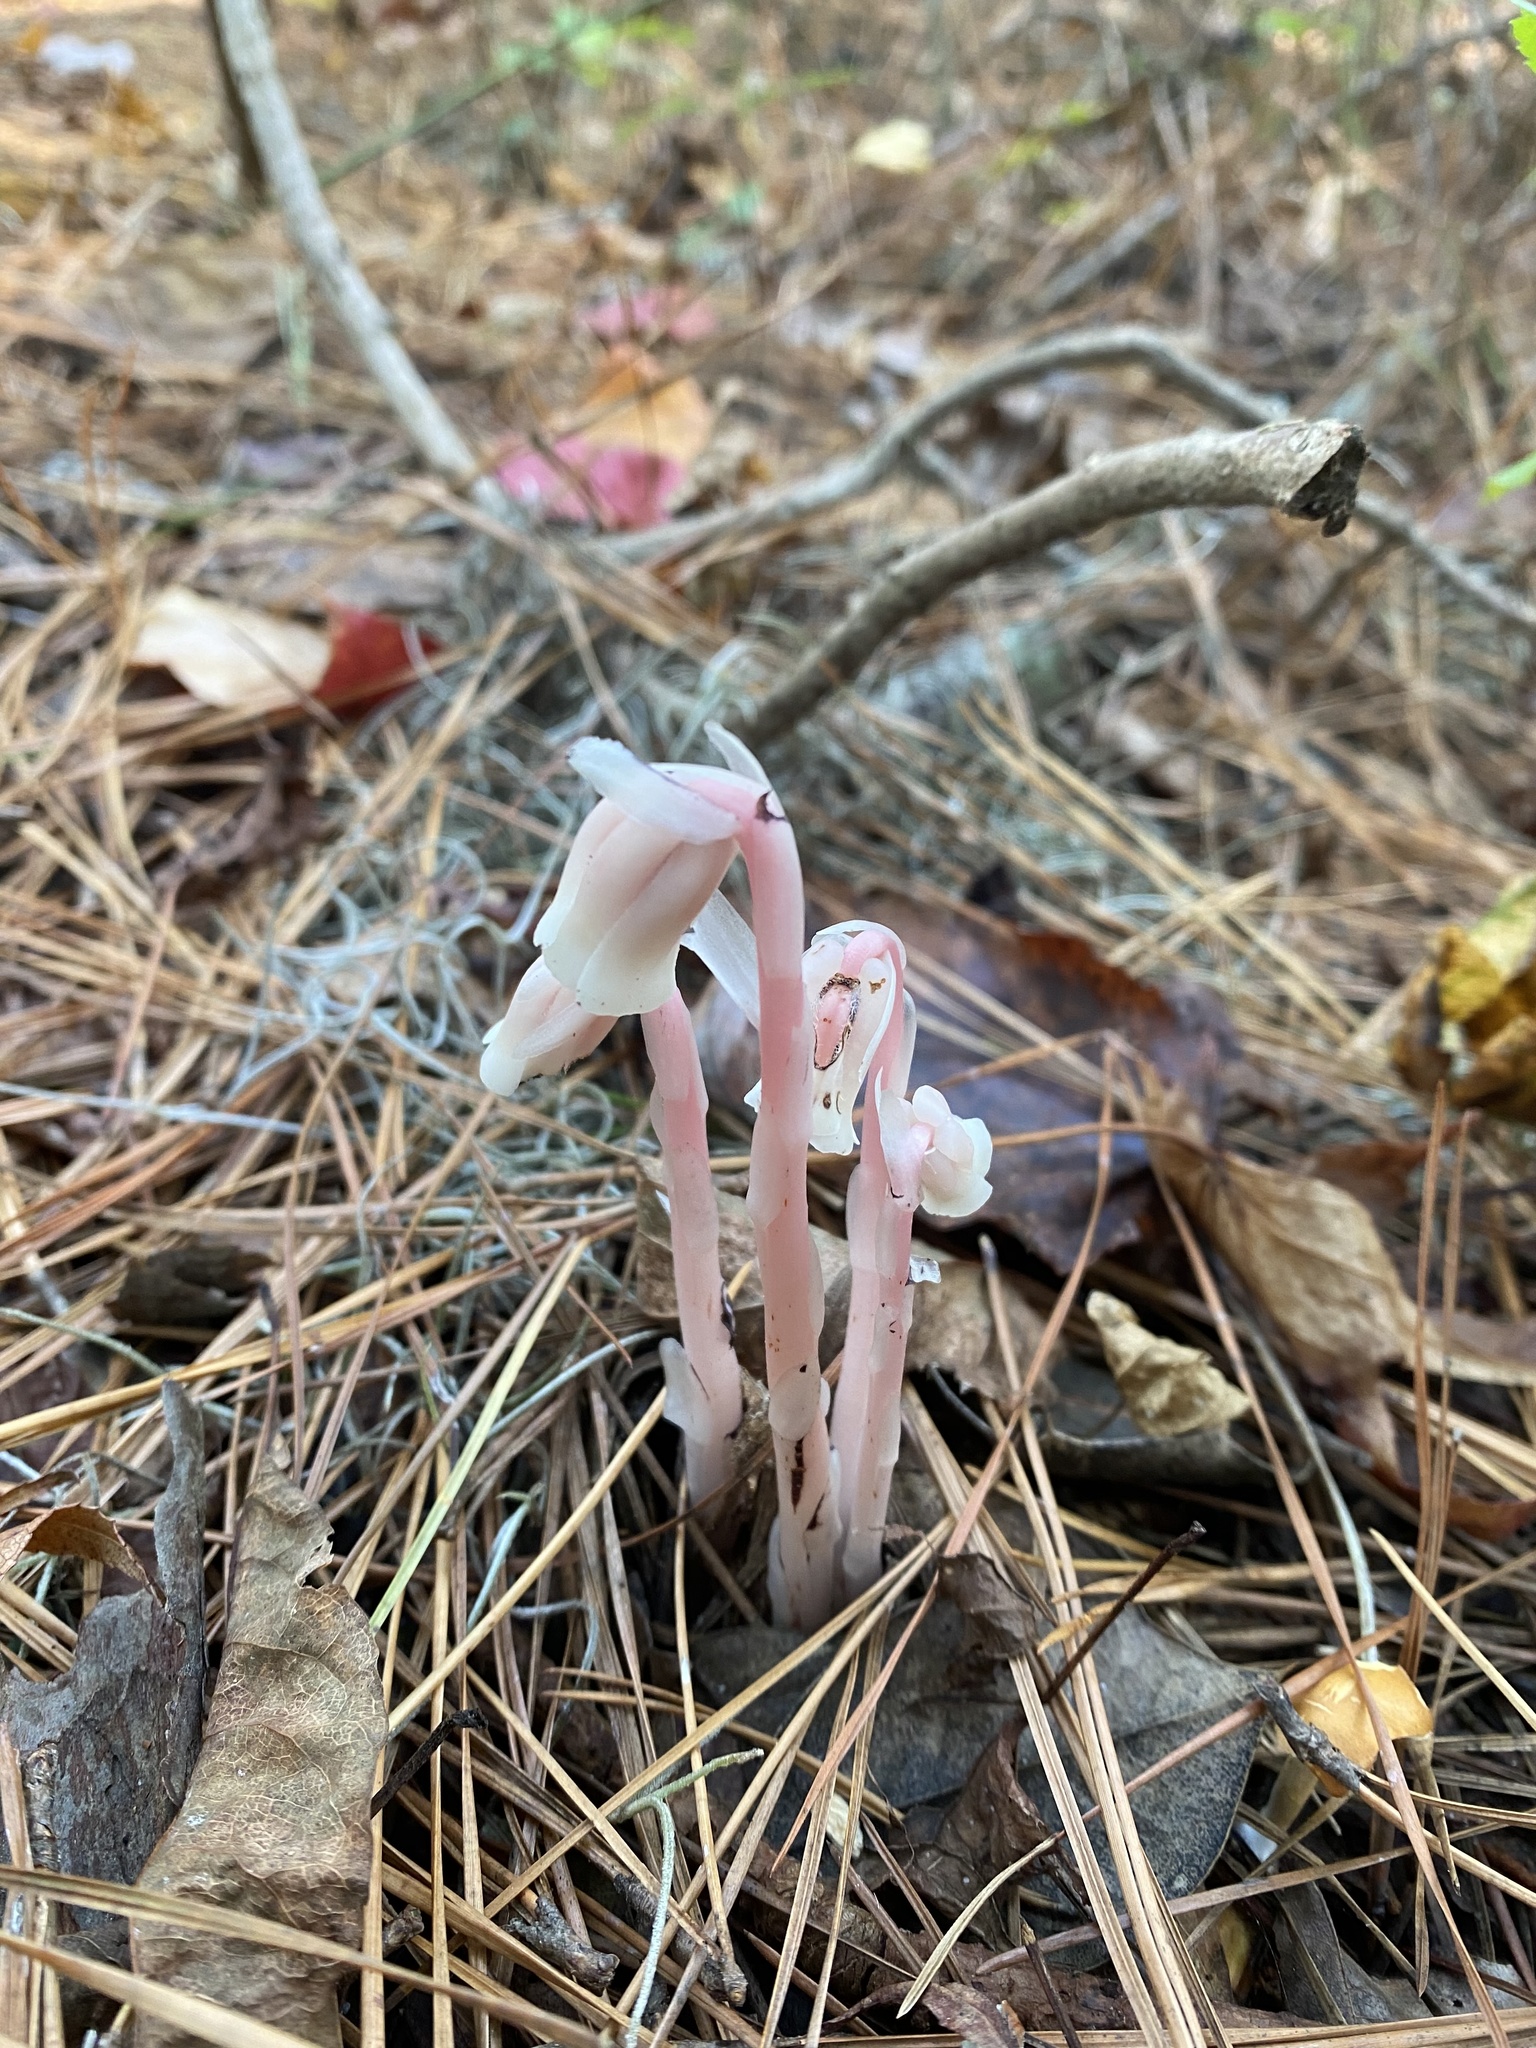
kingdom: Plantae
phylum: Tracheophyta
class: Magnoliopsida
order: Ericales
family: Ericaceae
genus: Monotropa
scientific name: Monotropa uniflora
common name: Convulsion root
